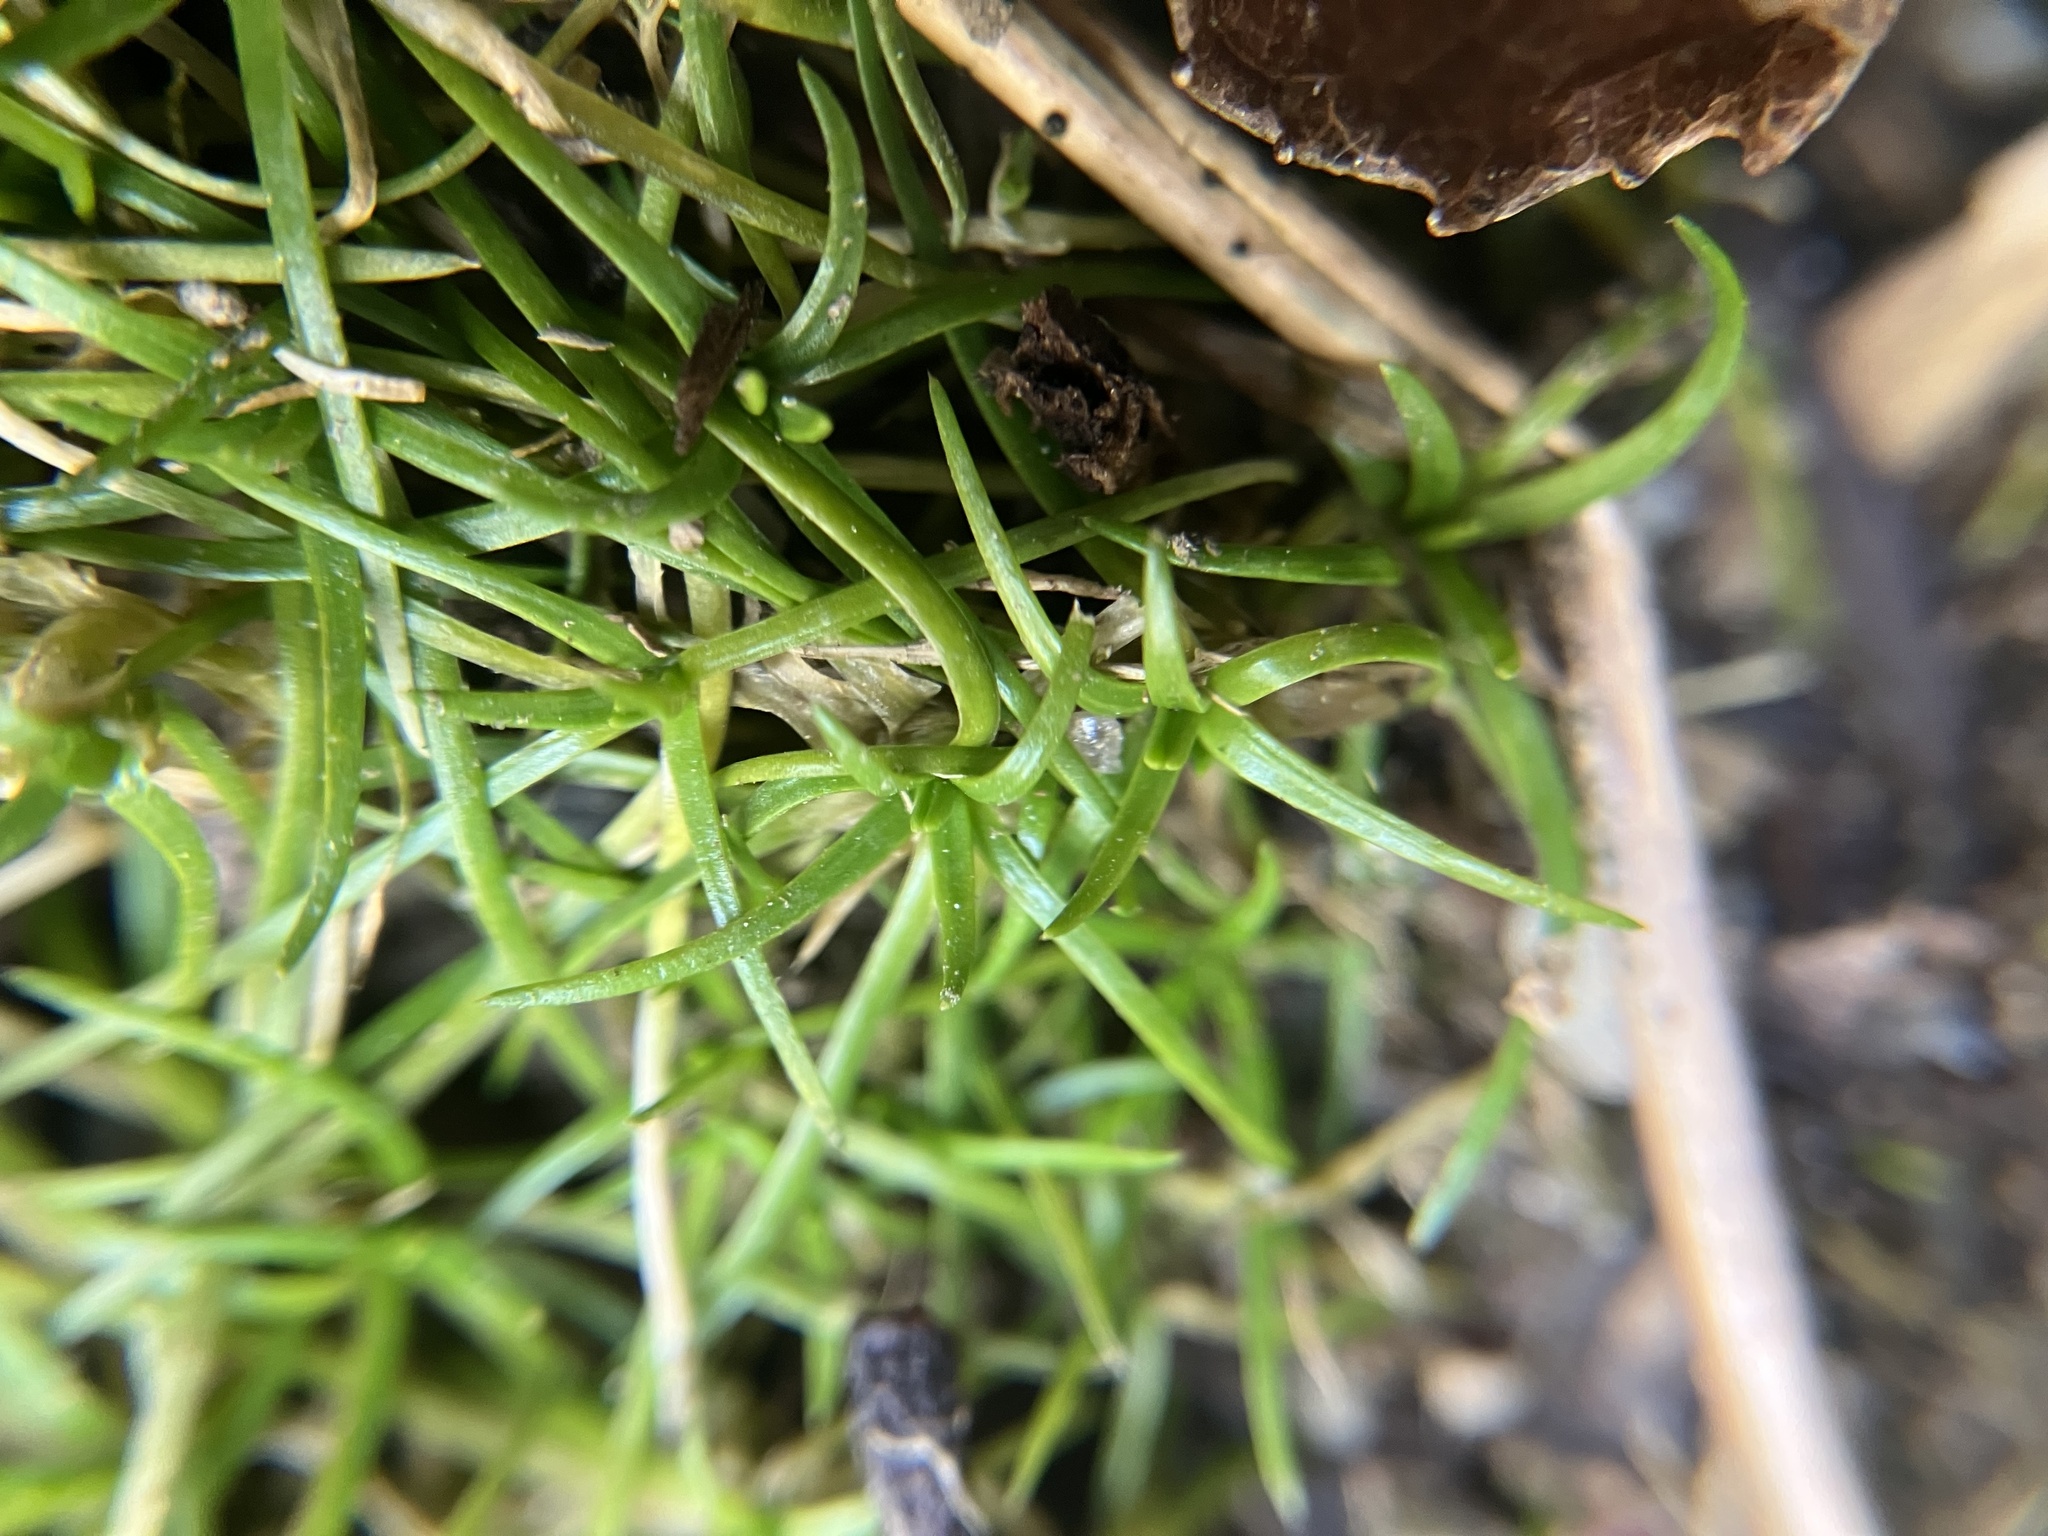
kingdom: Plantae
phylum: Tracheophyta
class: Magnoliopsida
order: Ericales
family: Polemoniaceae
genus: Phlox
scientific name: Phlox subulata
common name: Moss phlox
